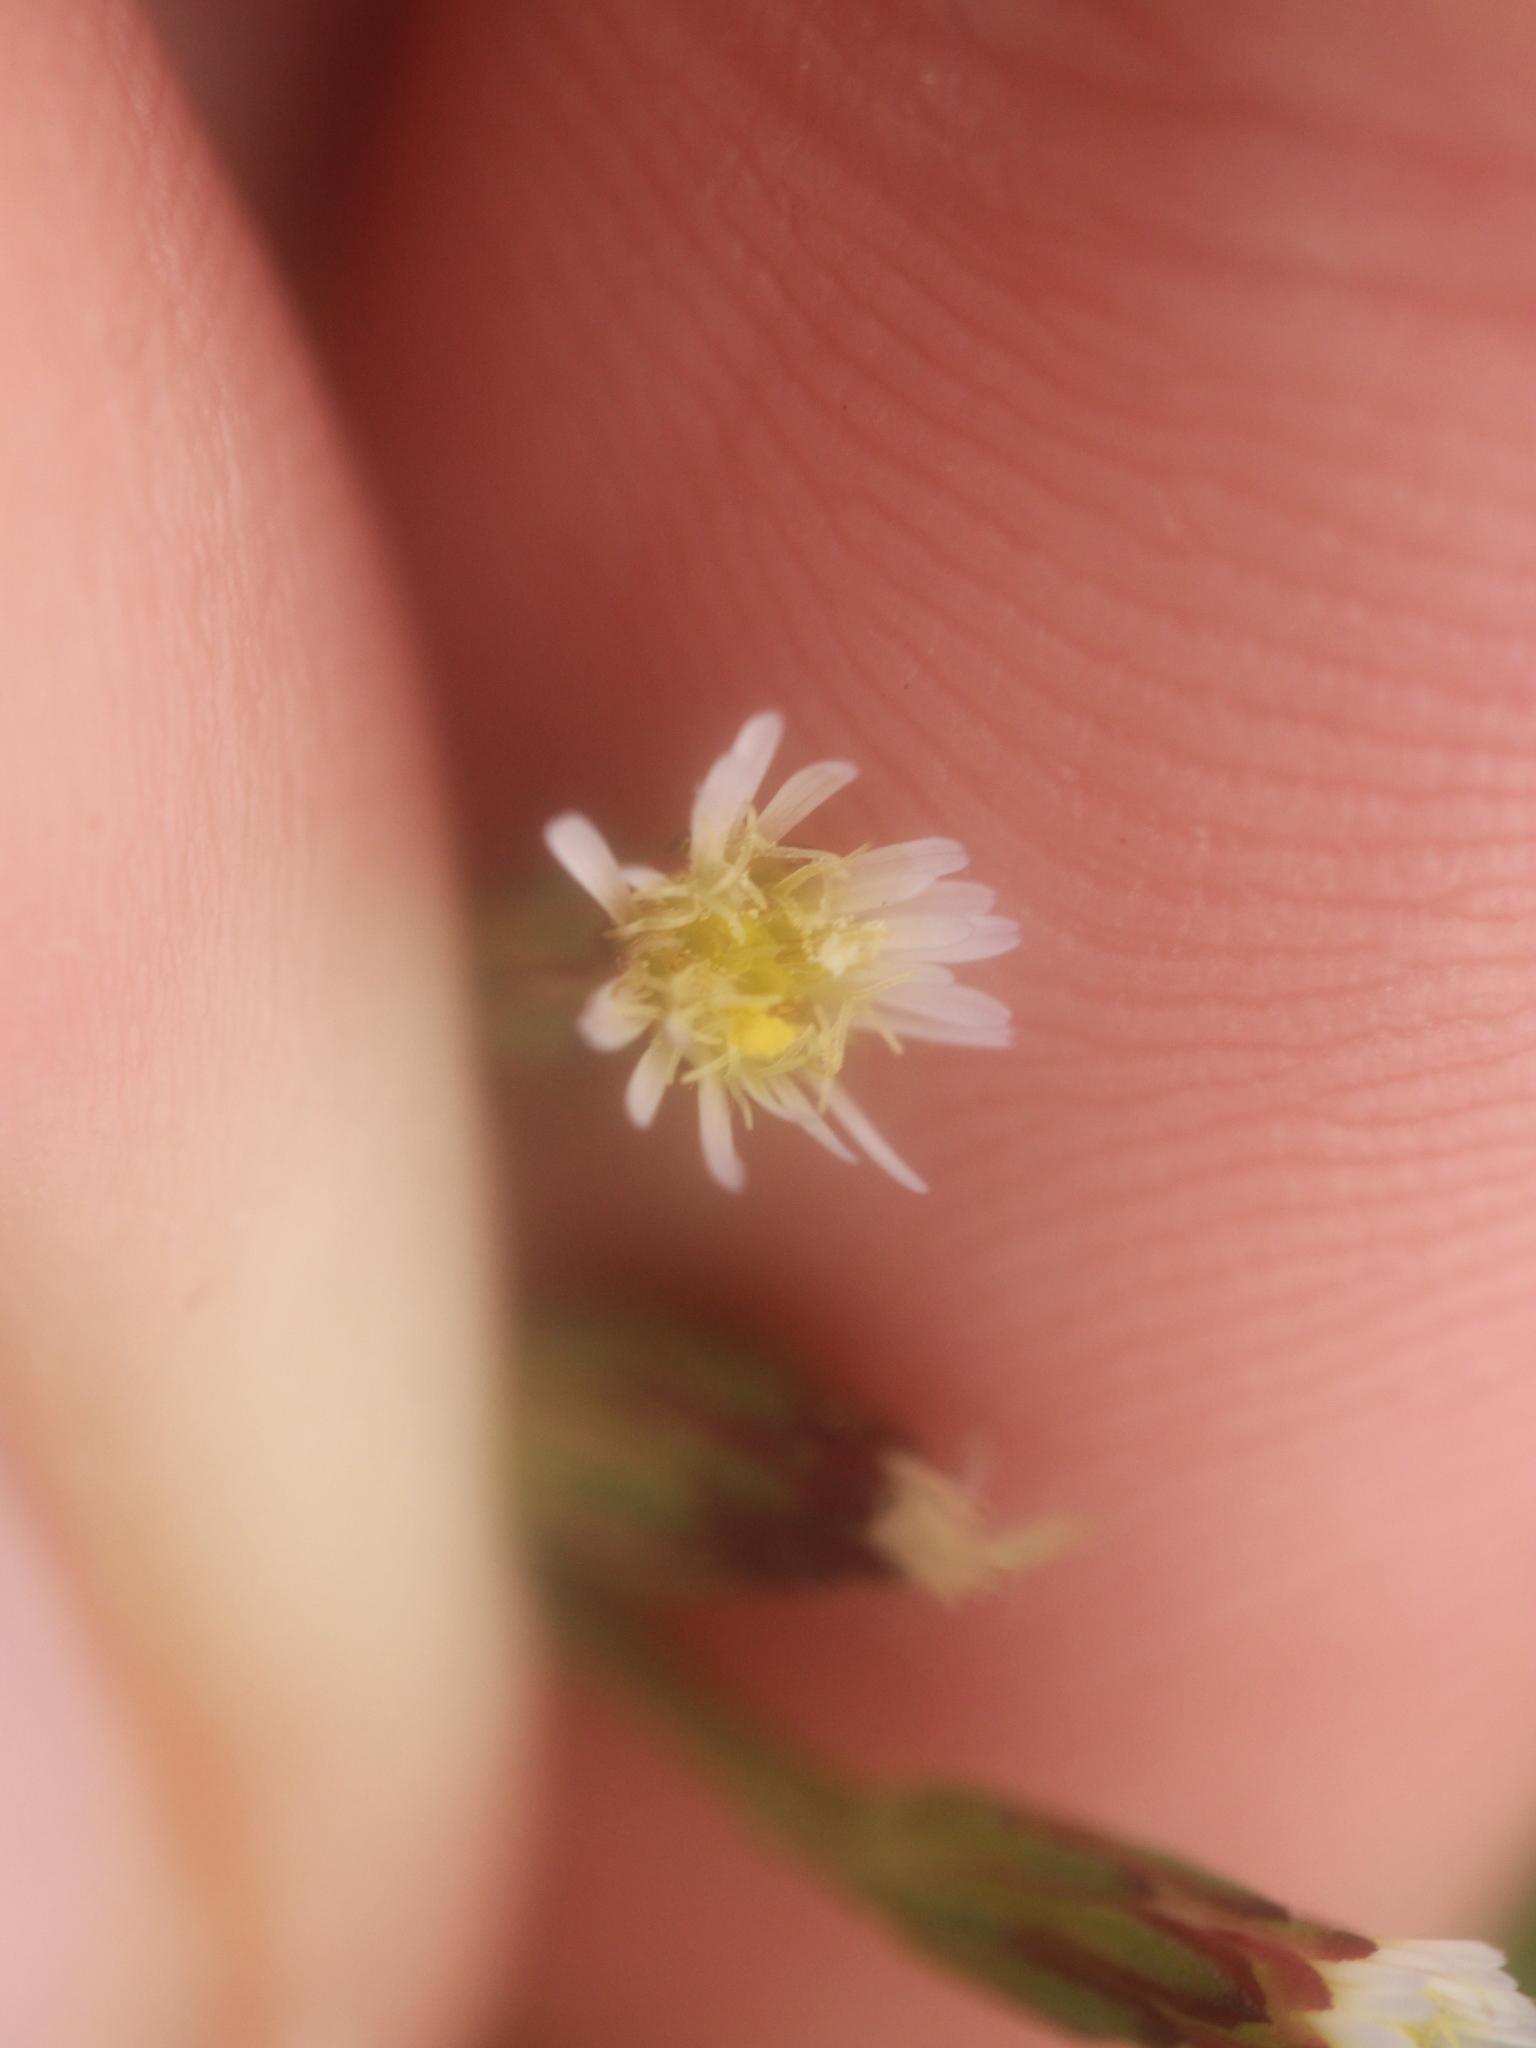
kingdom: Plantae
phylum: Tracheophyta
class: Magnoliopsida
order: Asterales
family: Asteraceae
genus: Symphyotrichum
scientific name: Symphyotrichum subulatum
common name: Annual saltmarsh aster
